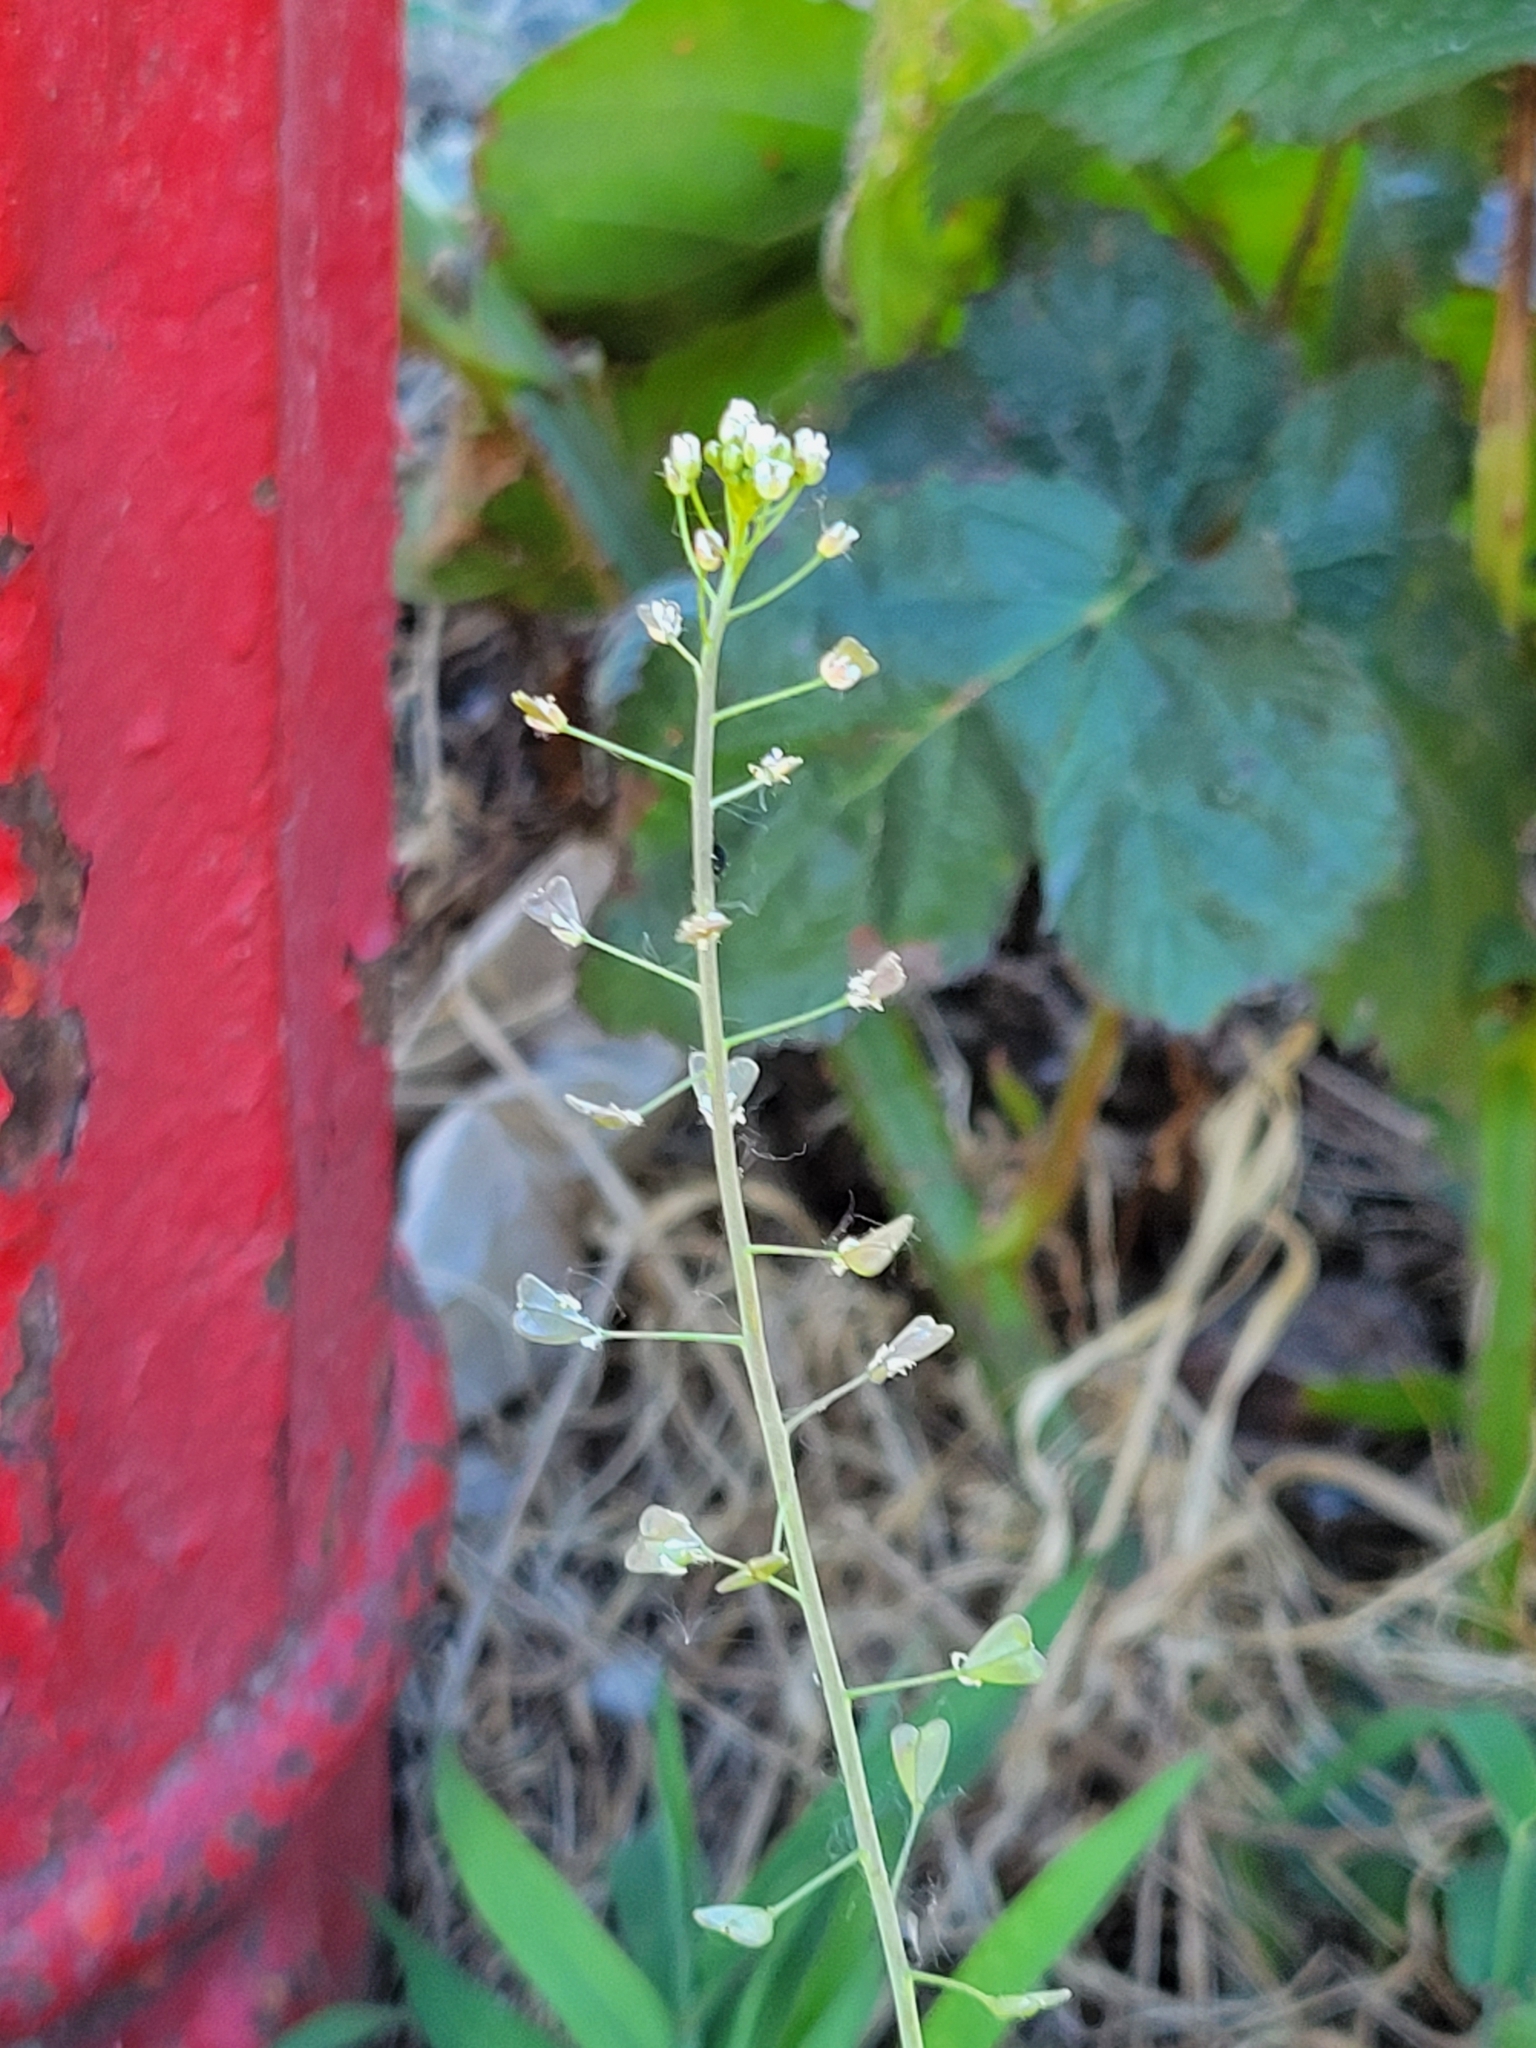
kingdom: Plantae
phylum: Tracheophyta
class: Magnoliopsida
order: Brassicales
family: Brassicaceae
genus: Capsella
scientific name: Capsella bursa-pastoris
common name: Shepherd's purse
